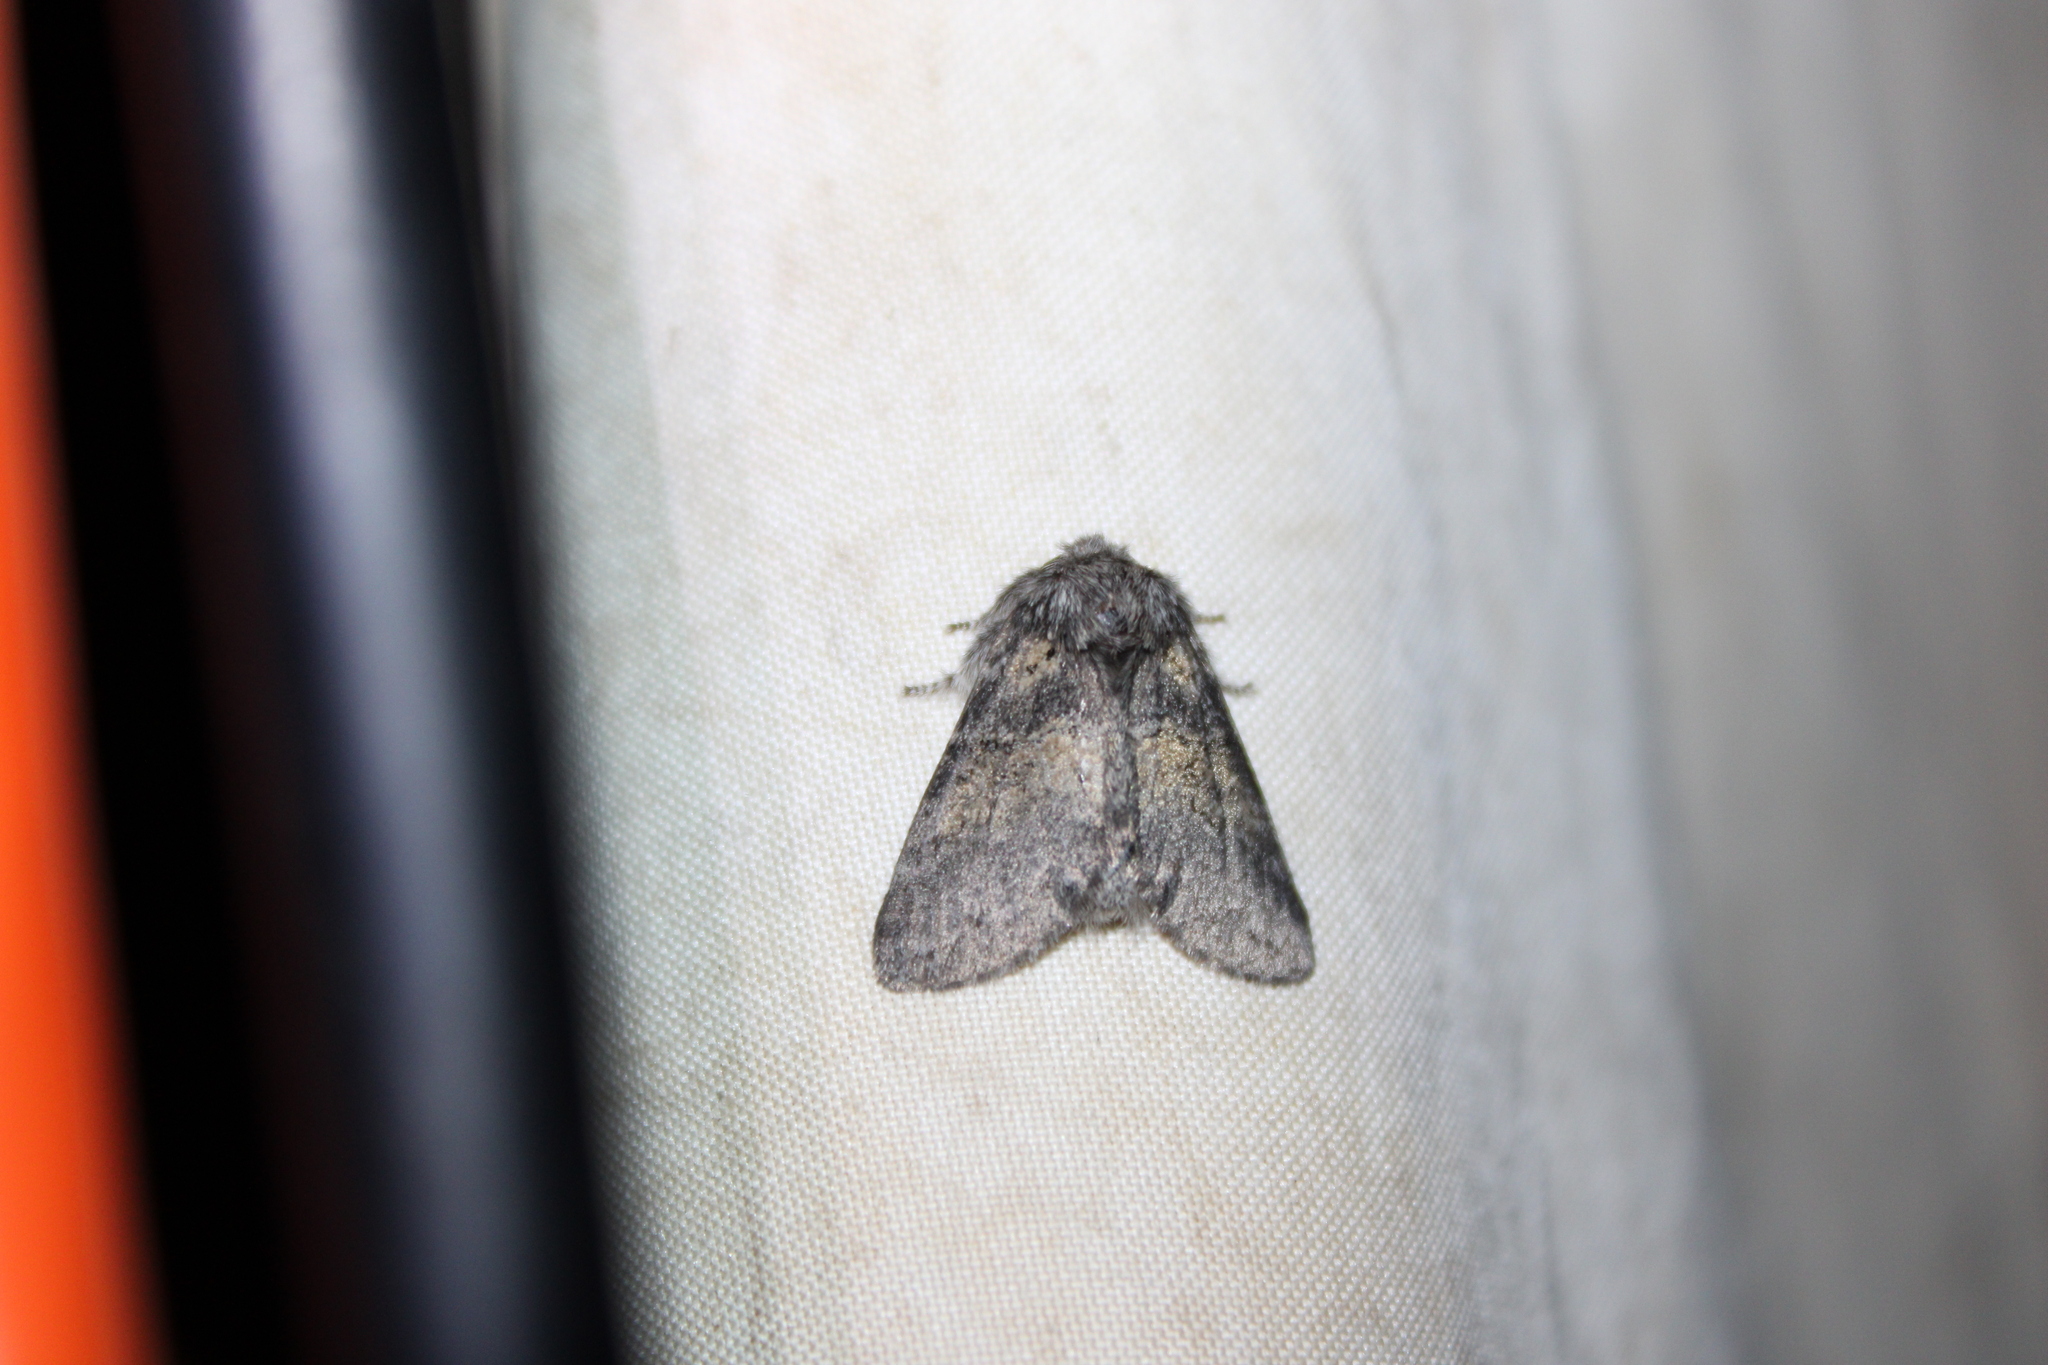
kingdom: Animalia
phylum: Arthropoda
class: Insecta
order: Lepidoptera
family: Notodontidae
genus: Gluphisia
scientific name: Gluphisia septentrionis
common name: Common gluphisia
